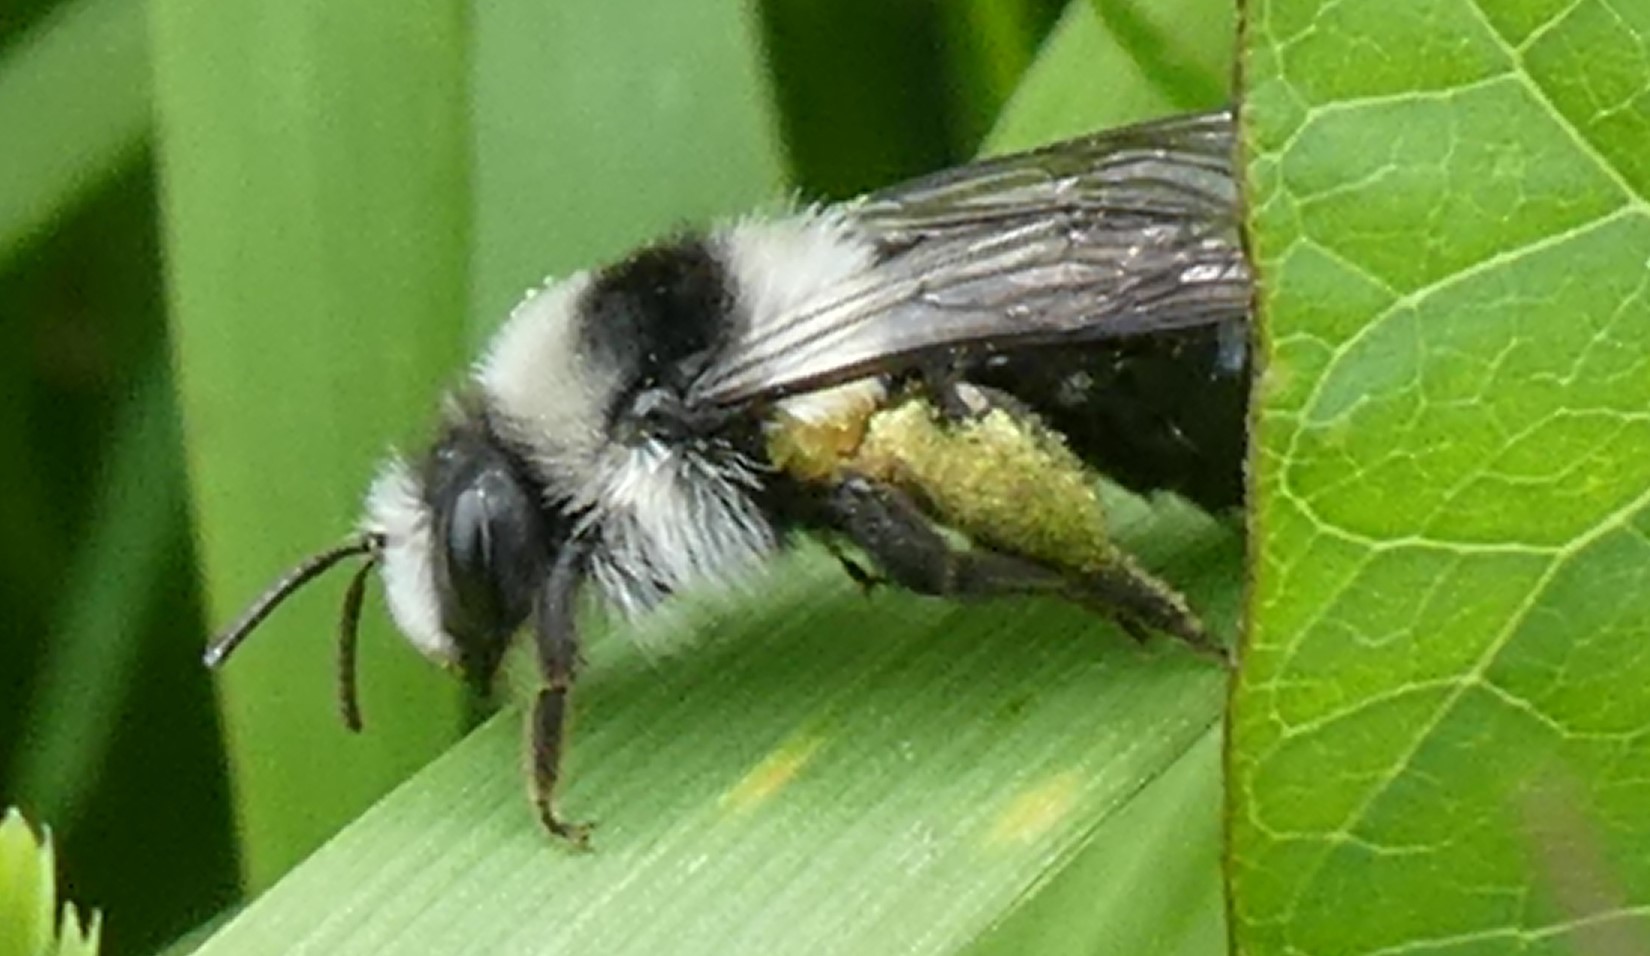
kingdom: Animalia
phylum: Arthropoda
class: Insecta
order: Hymenoptera
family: Andrenidae
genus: Andrena
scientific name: Andrena cineraria
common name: Ashy mining bee
